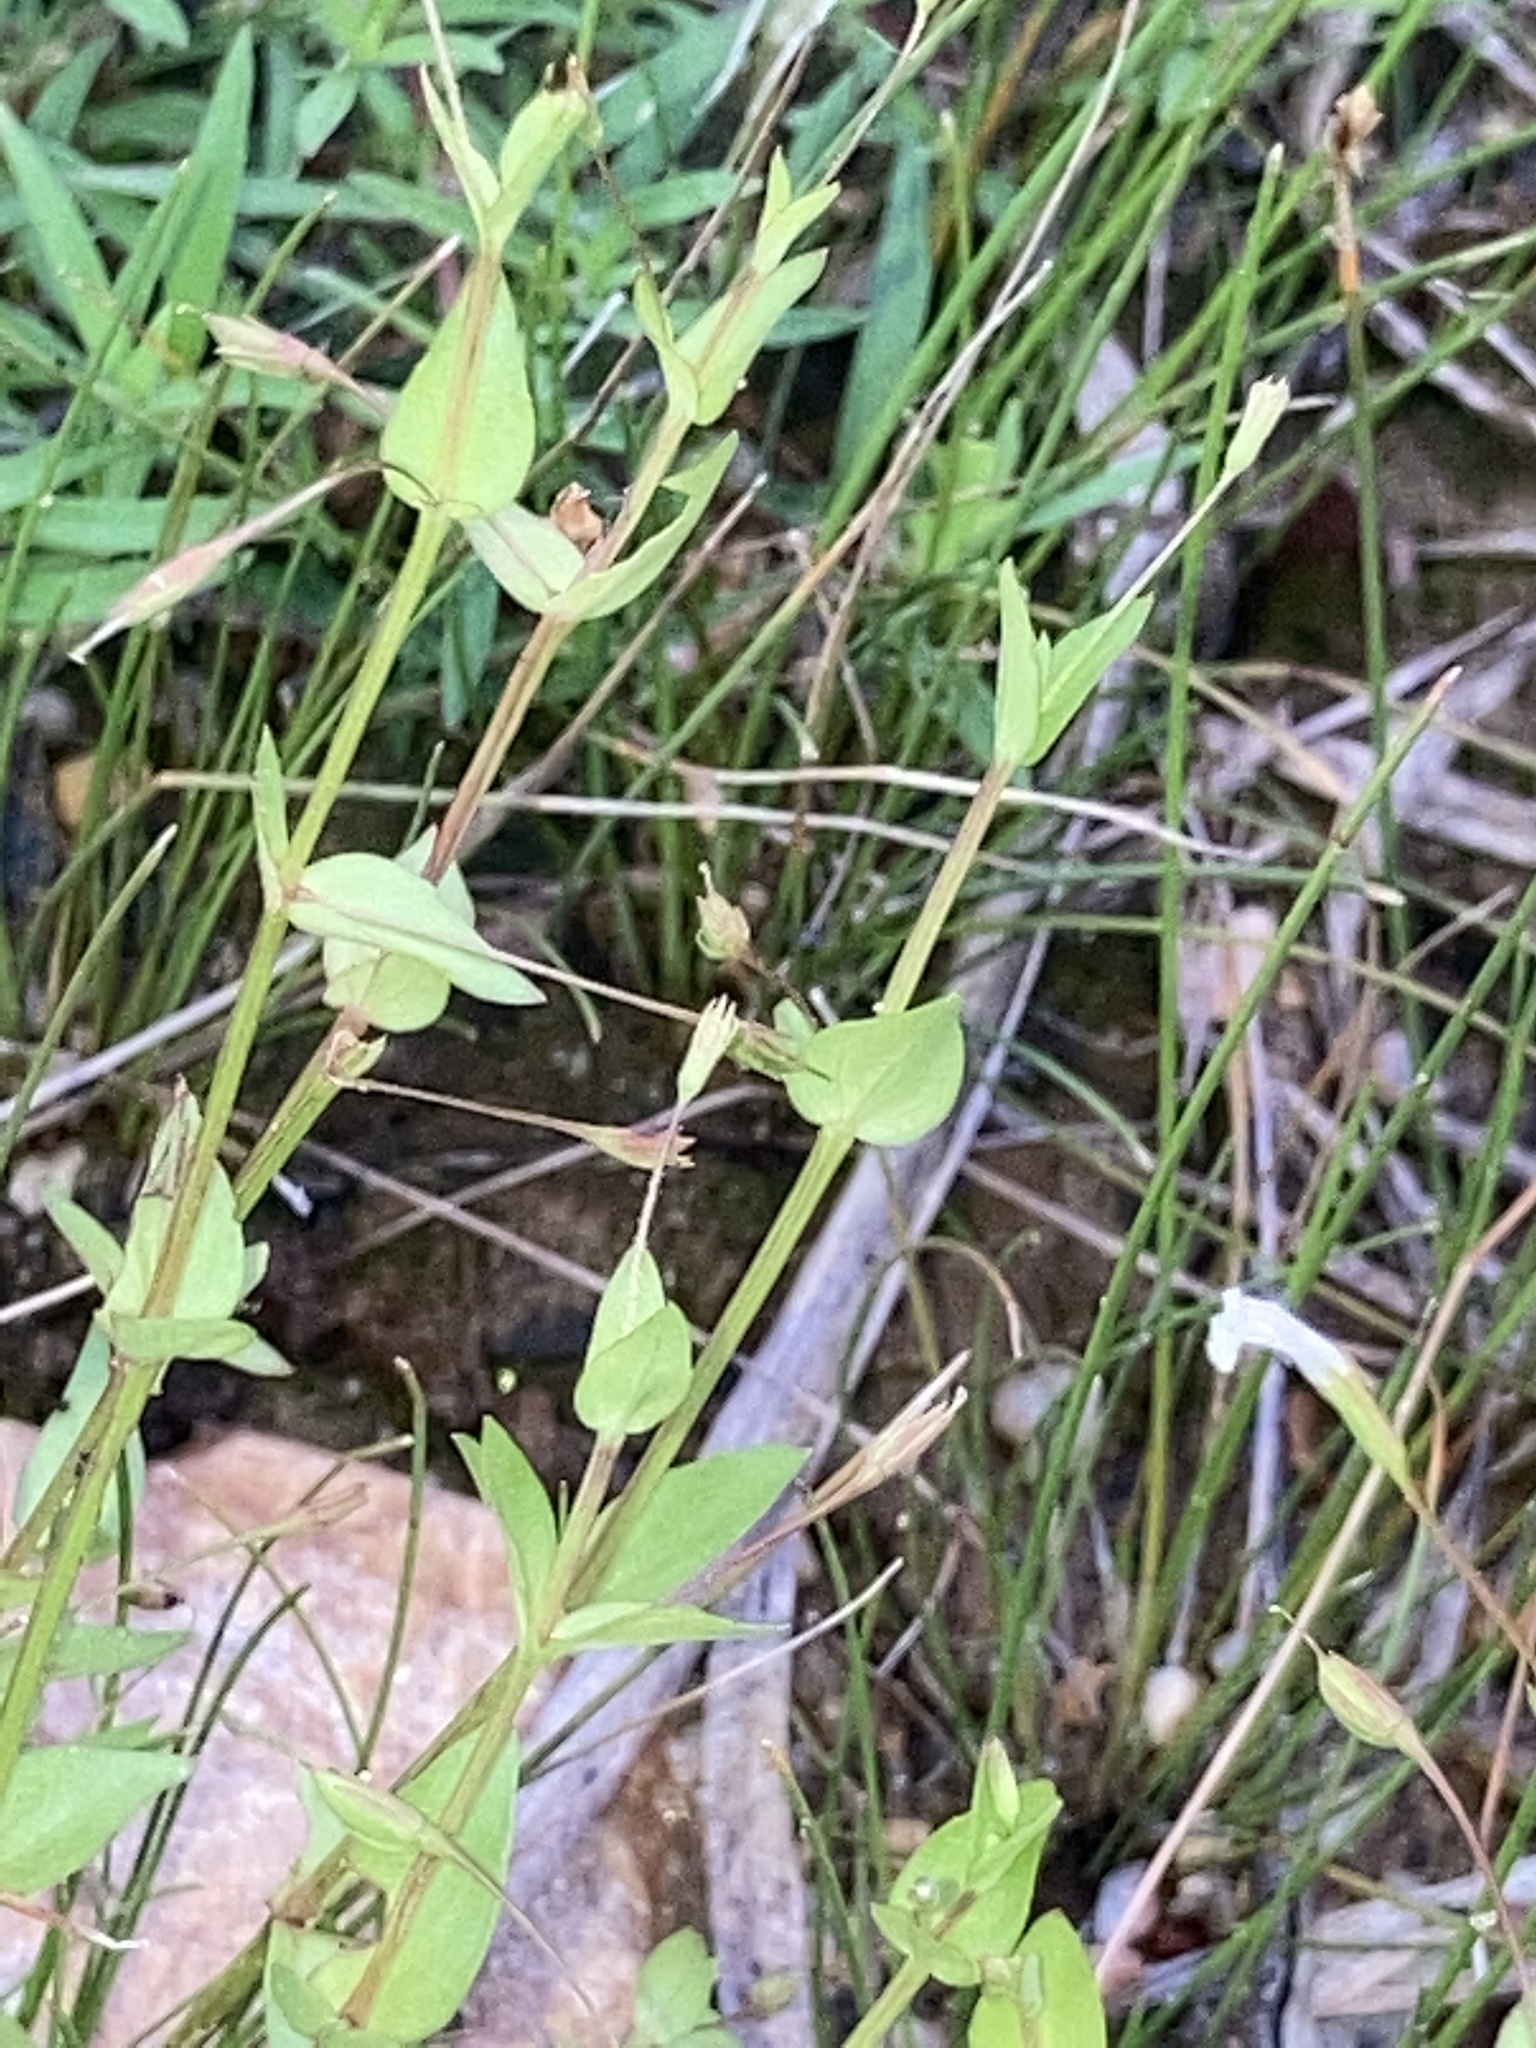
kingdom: Plantae
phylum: Tracheophyta
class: Magnoliopsida
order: Lamiales
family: Linderniaceae
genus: Lindernia
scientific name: Lindernia dubia
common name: Annual false pimpernel
